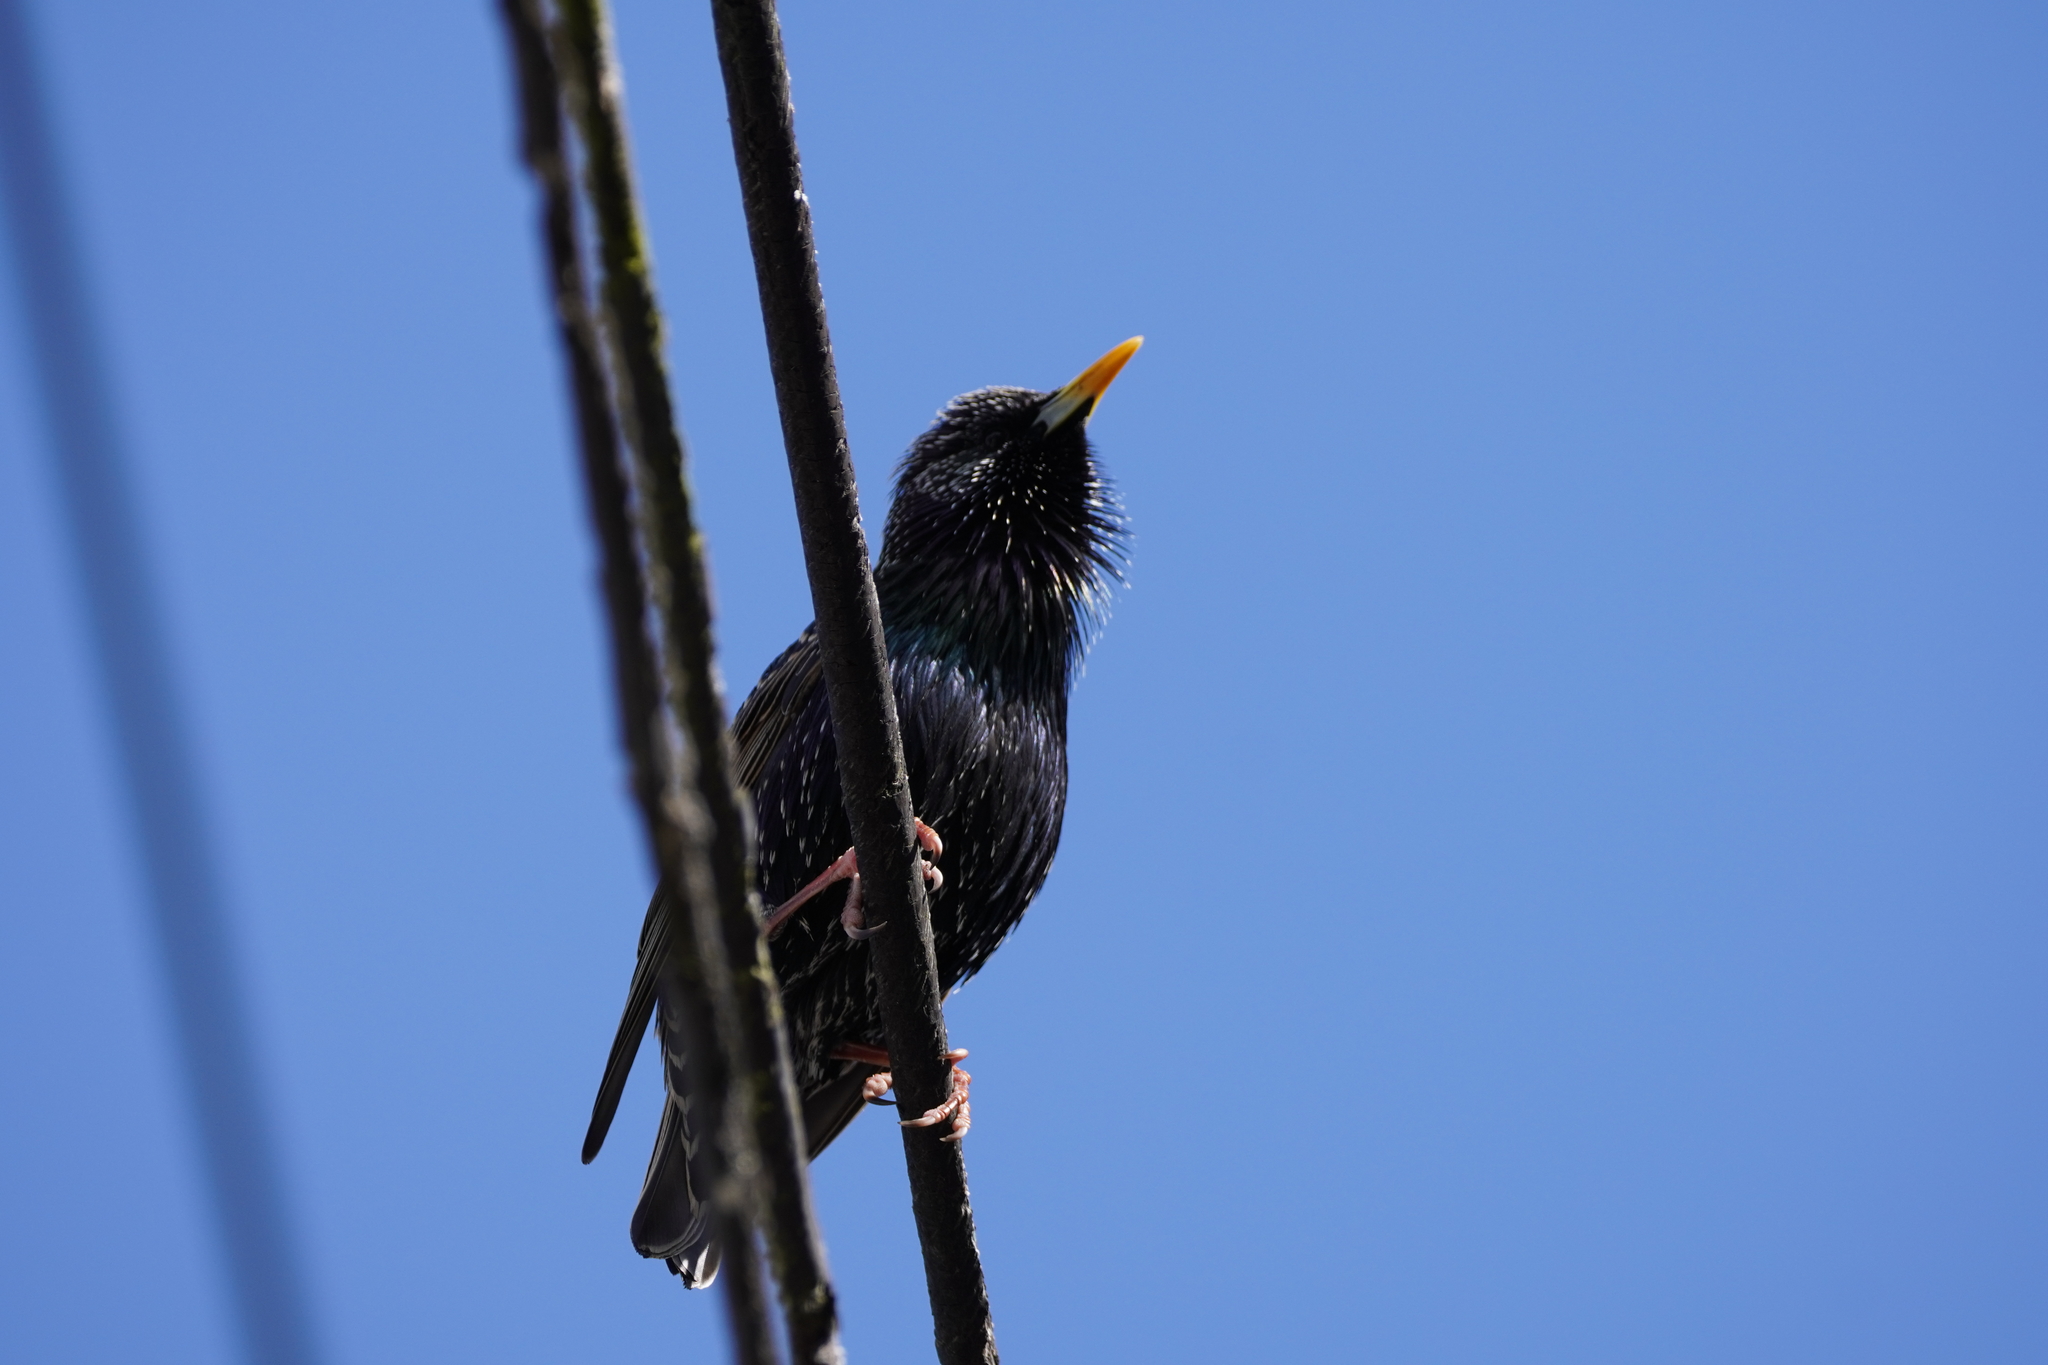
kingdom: Animalia
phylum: Chordata
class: Aves
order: Passeriformes
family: Sturnidae
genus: Sturnus
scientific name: Sturnus vulgaris
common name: Common starling
